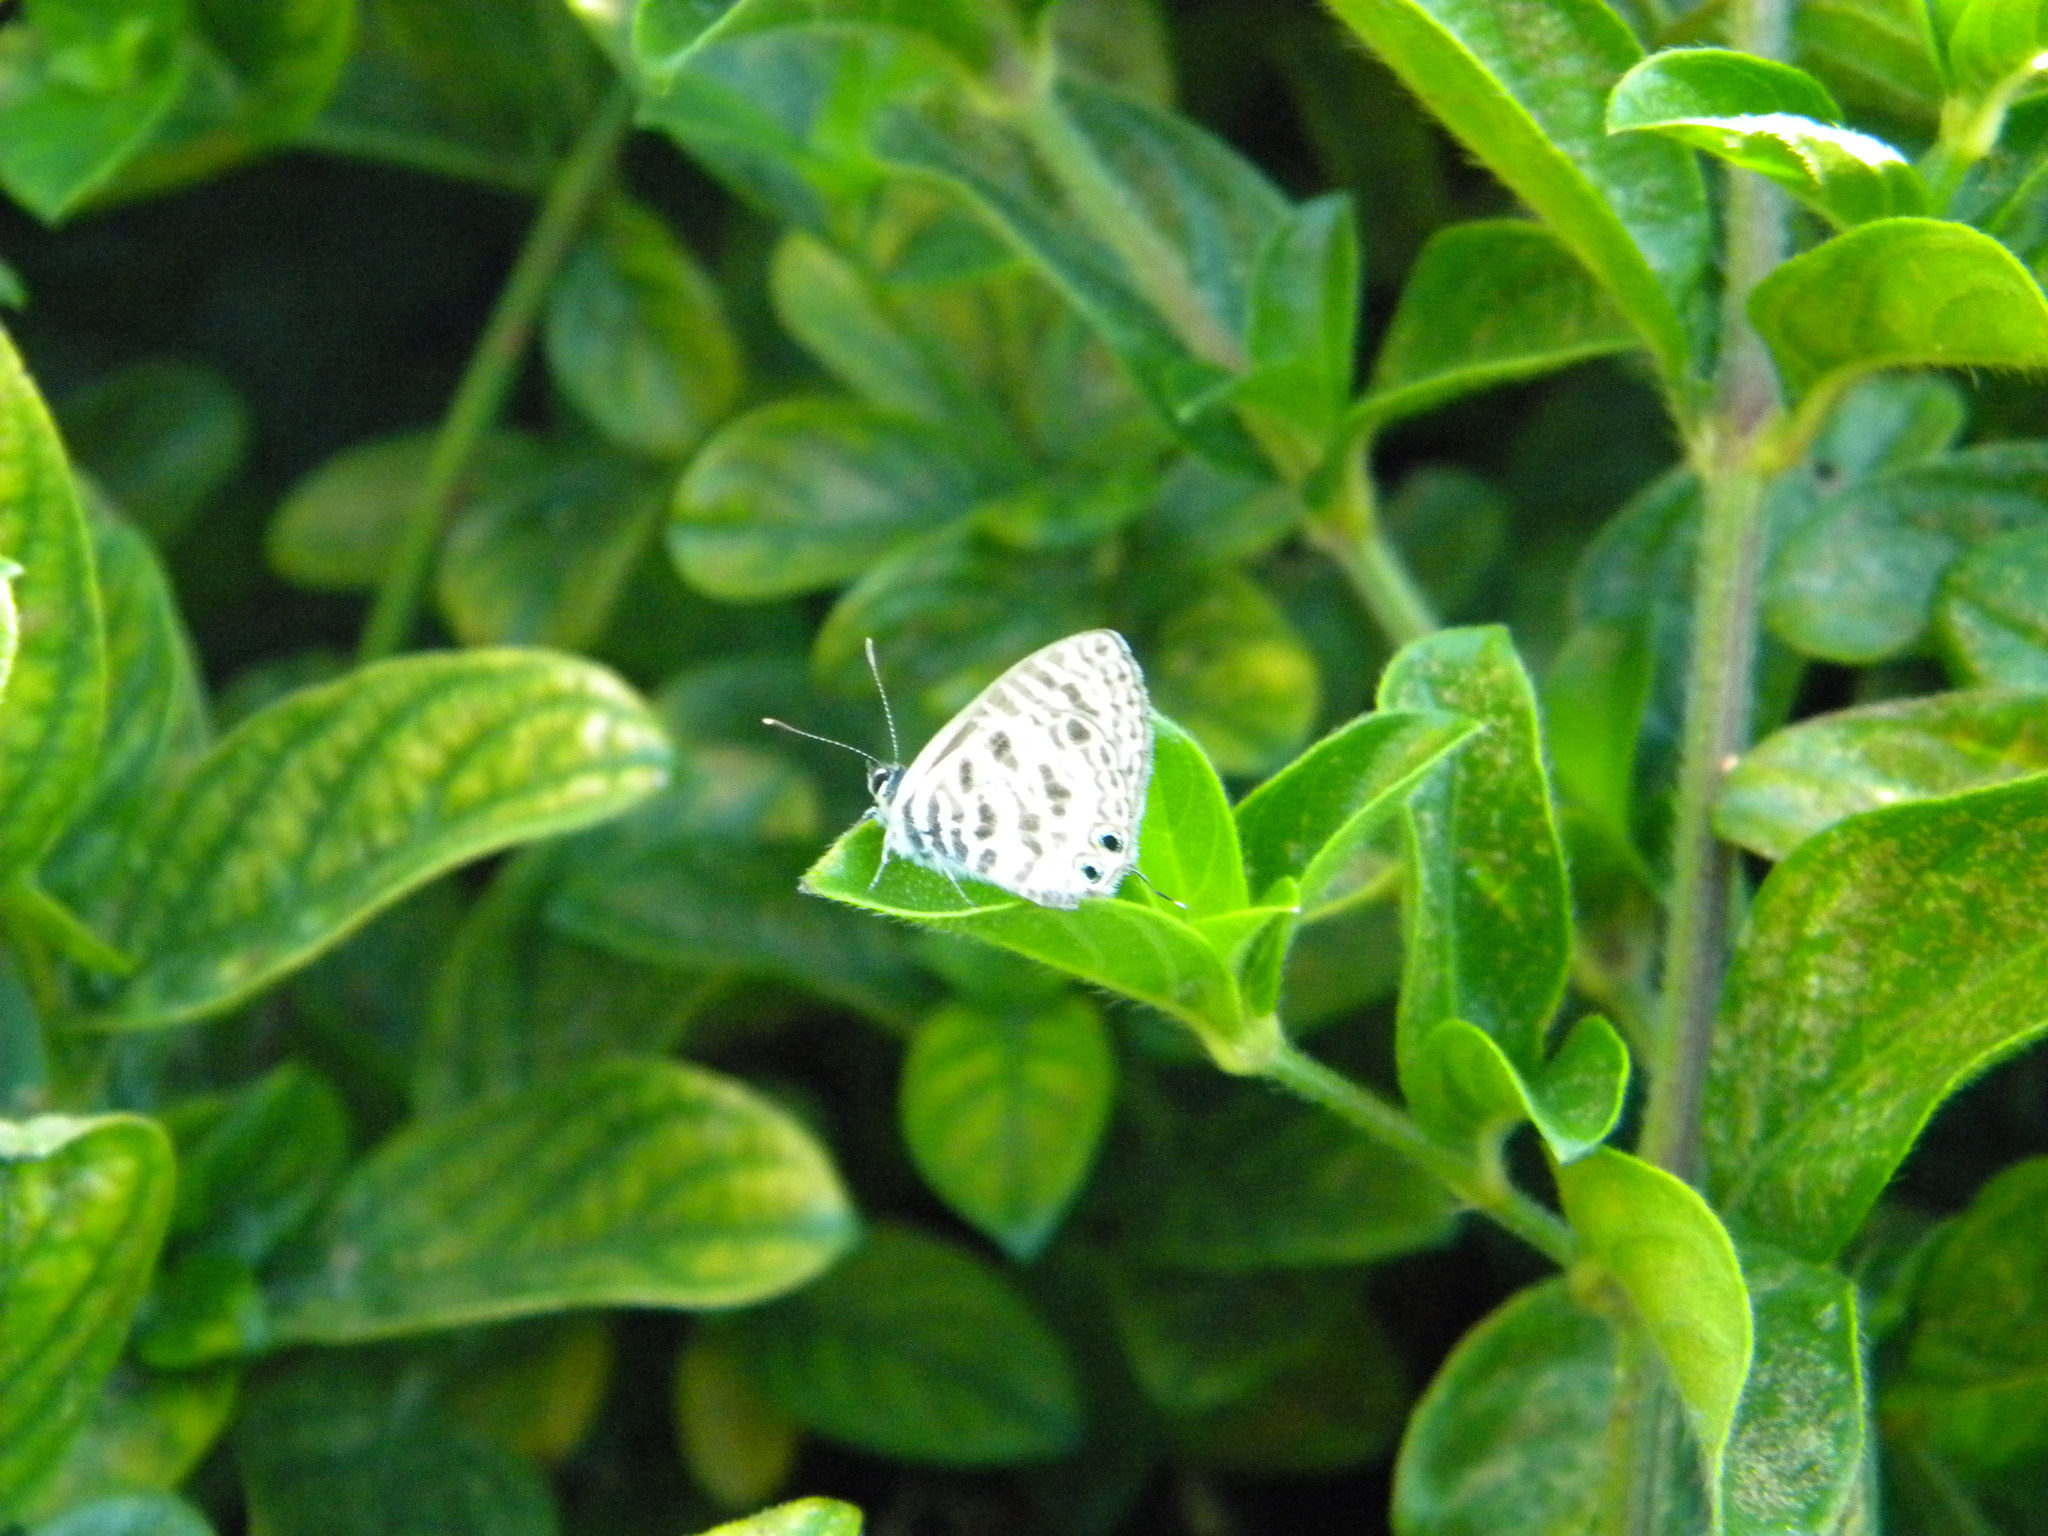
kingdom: Animalia
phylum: Arthropoda
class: Insecta
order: Lepidoptera
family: Lycaenidae
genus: Leptotes
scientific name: Leptotes
